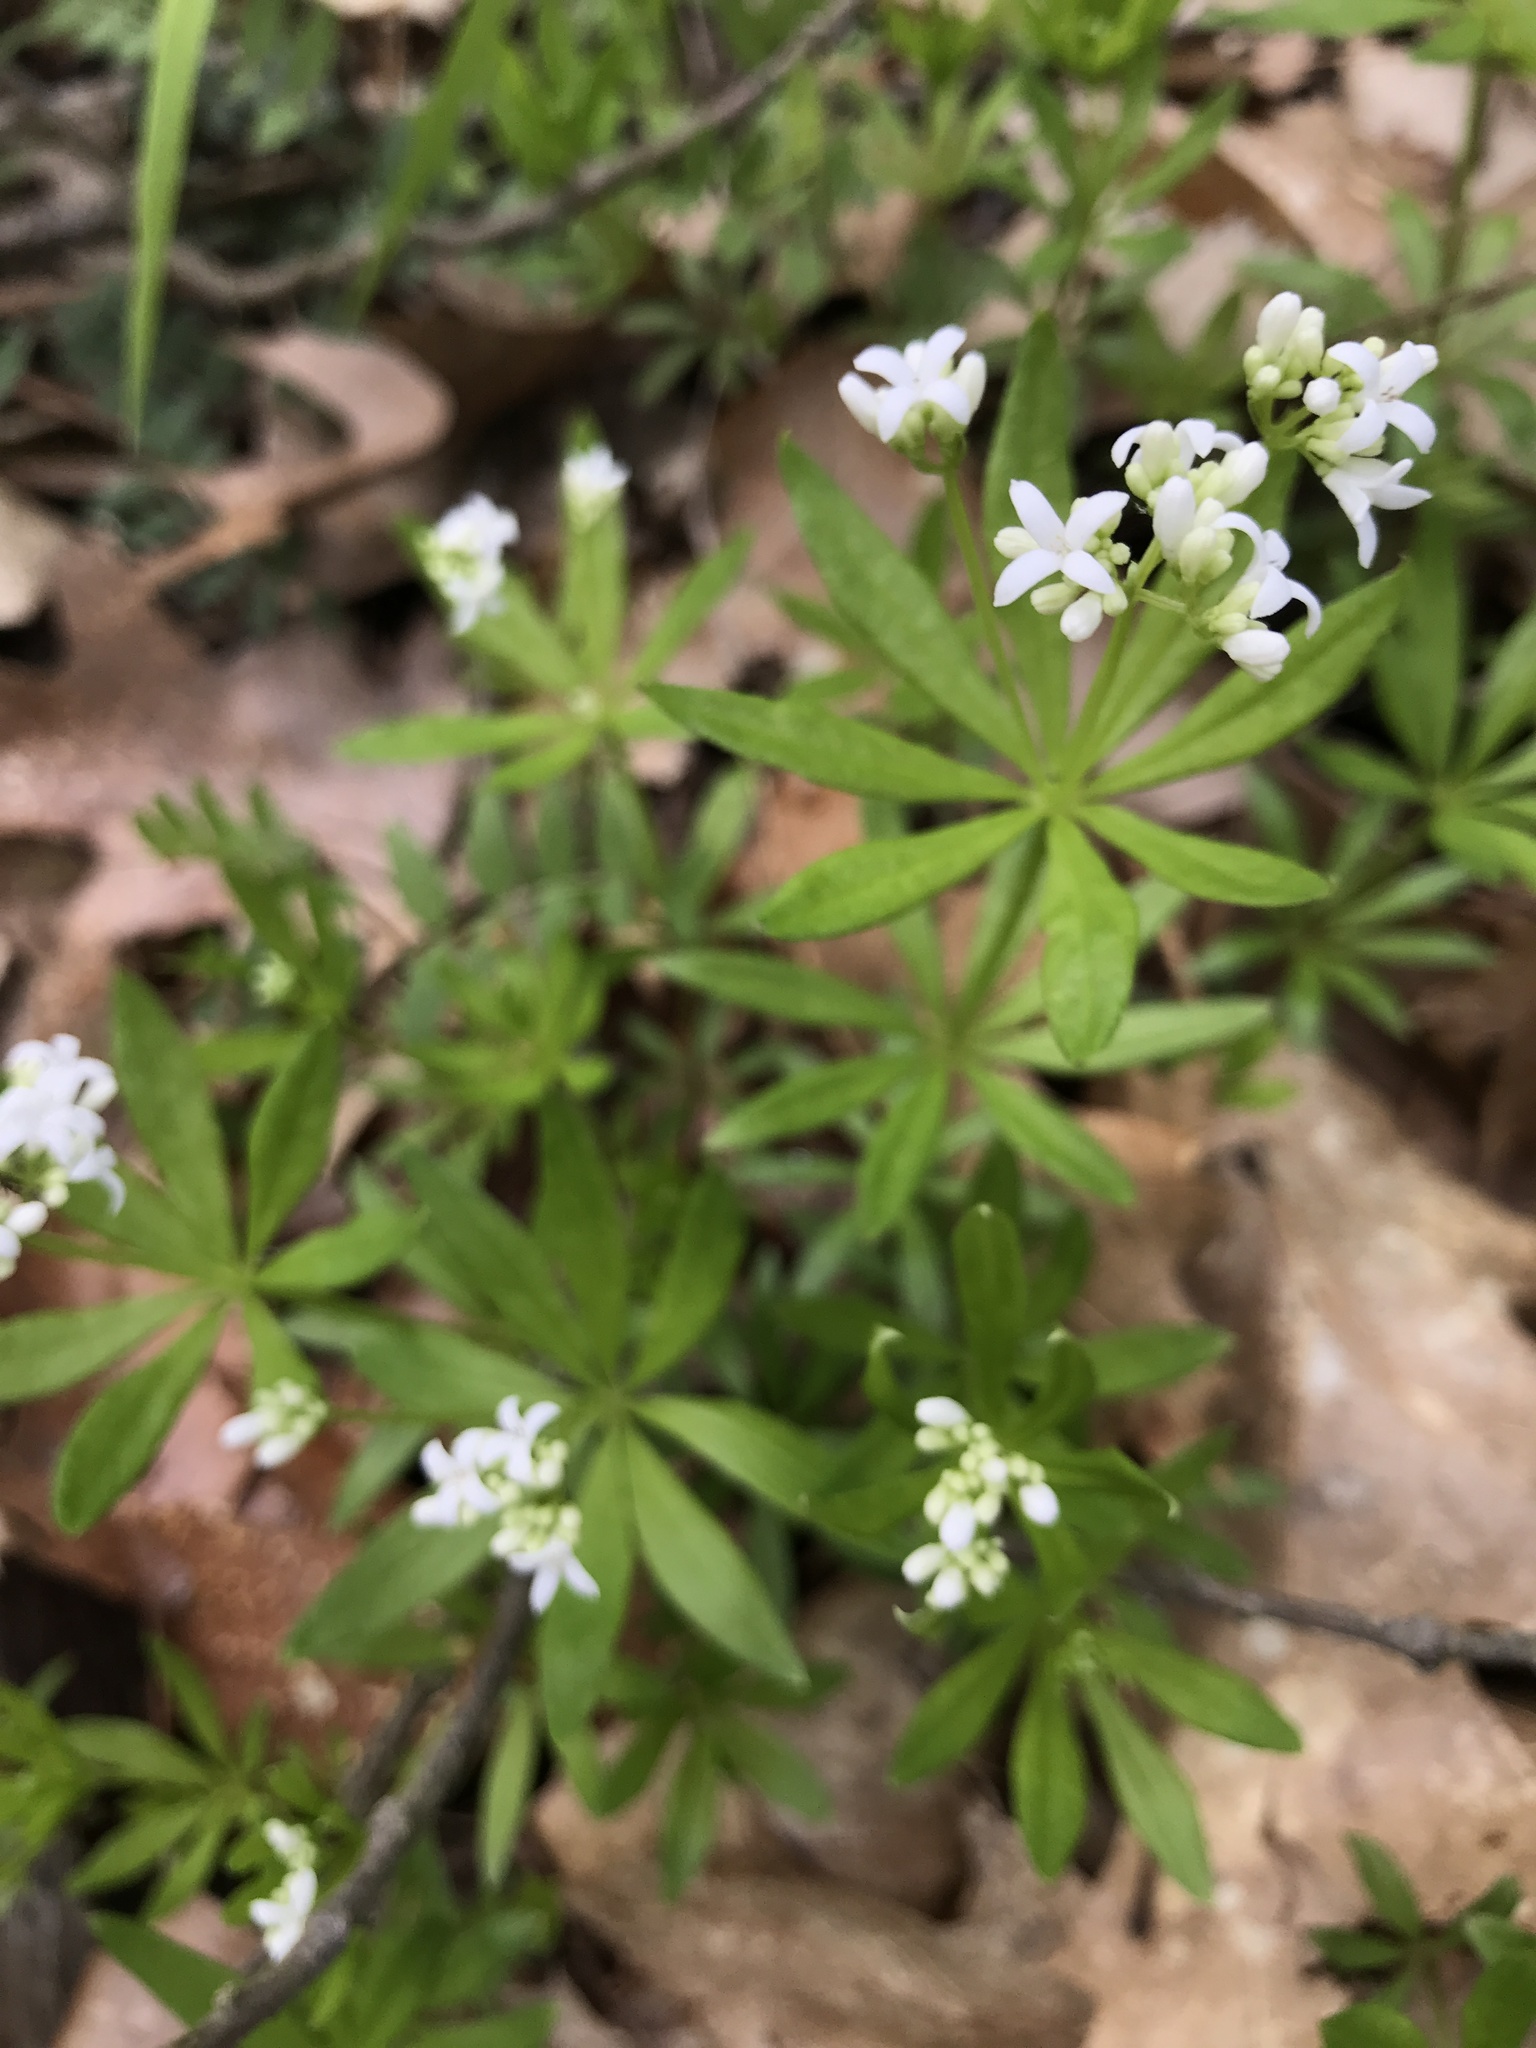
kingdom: Plantae
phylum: Tracheophyta
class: Magnoliopsida
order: Gentianales
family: Rubiaceae
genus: Galium
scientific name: Galium odoratum
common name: Sweet woodruff
